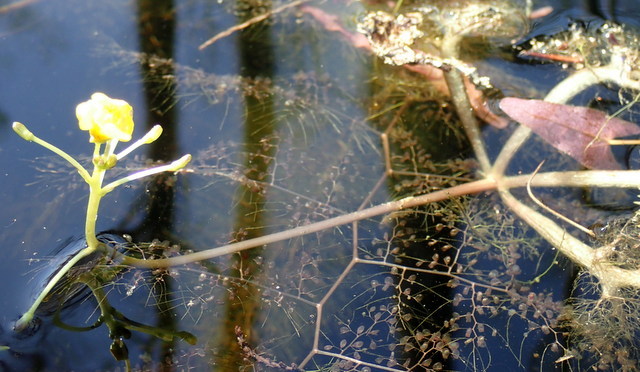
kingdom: Plantae
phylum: Tracheophyta
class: Magnoliopsida
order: Lamiales
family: Lentibulariaceae
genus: Utricularia
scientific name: Utricularia inflata
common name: Floating bladderwort
